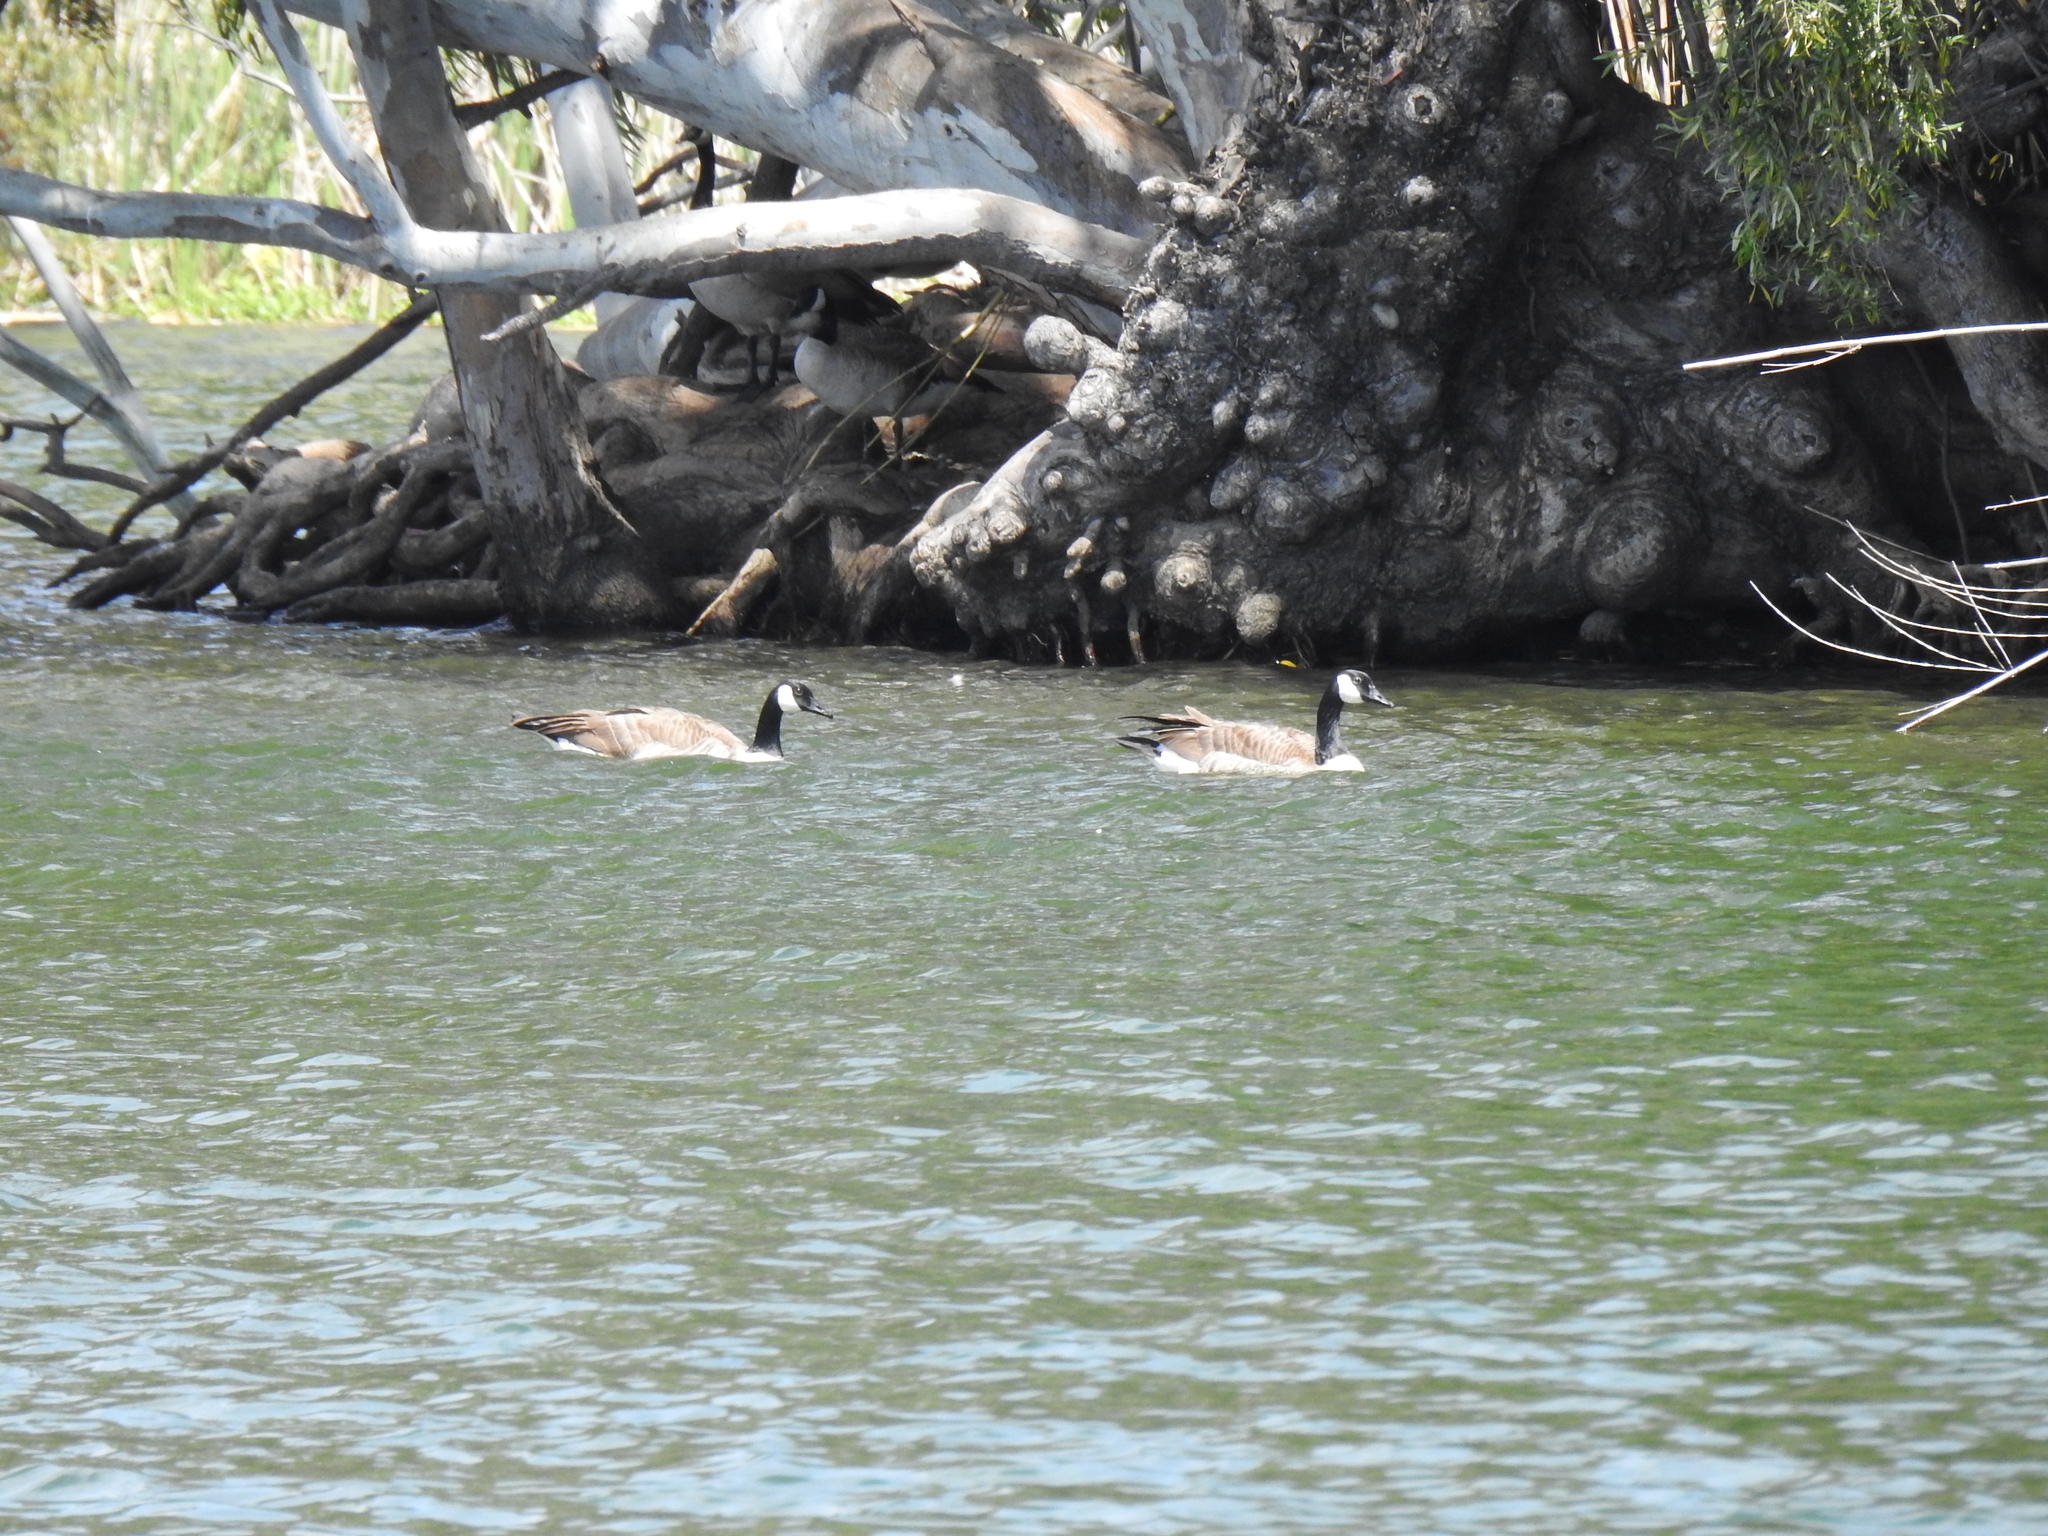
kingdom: Animalia
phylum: Chordata
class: Aves
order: Anseriformes
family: Anatidae
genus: Branta
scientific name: Branta canadensis
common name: Canada goose
